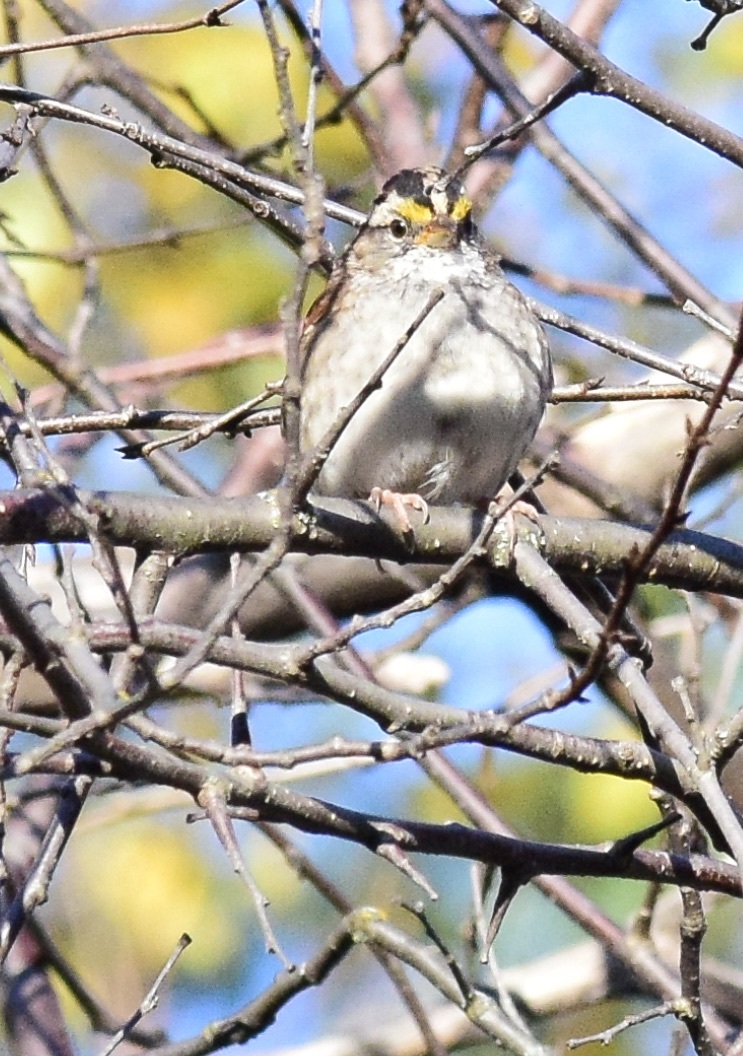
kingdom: Animalia
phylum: Chordata
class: Aves
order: Passeriformes
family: Passerellidae
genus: Zonotrichia
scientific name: Zonotrichia albicollis
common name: White-throated sparrow
